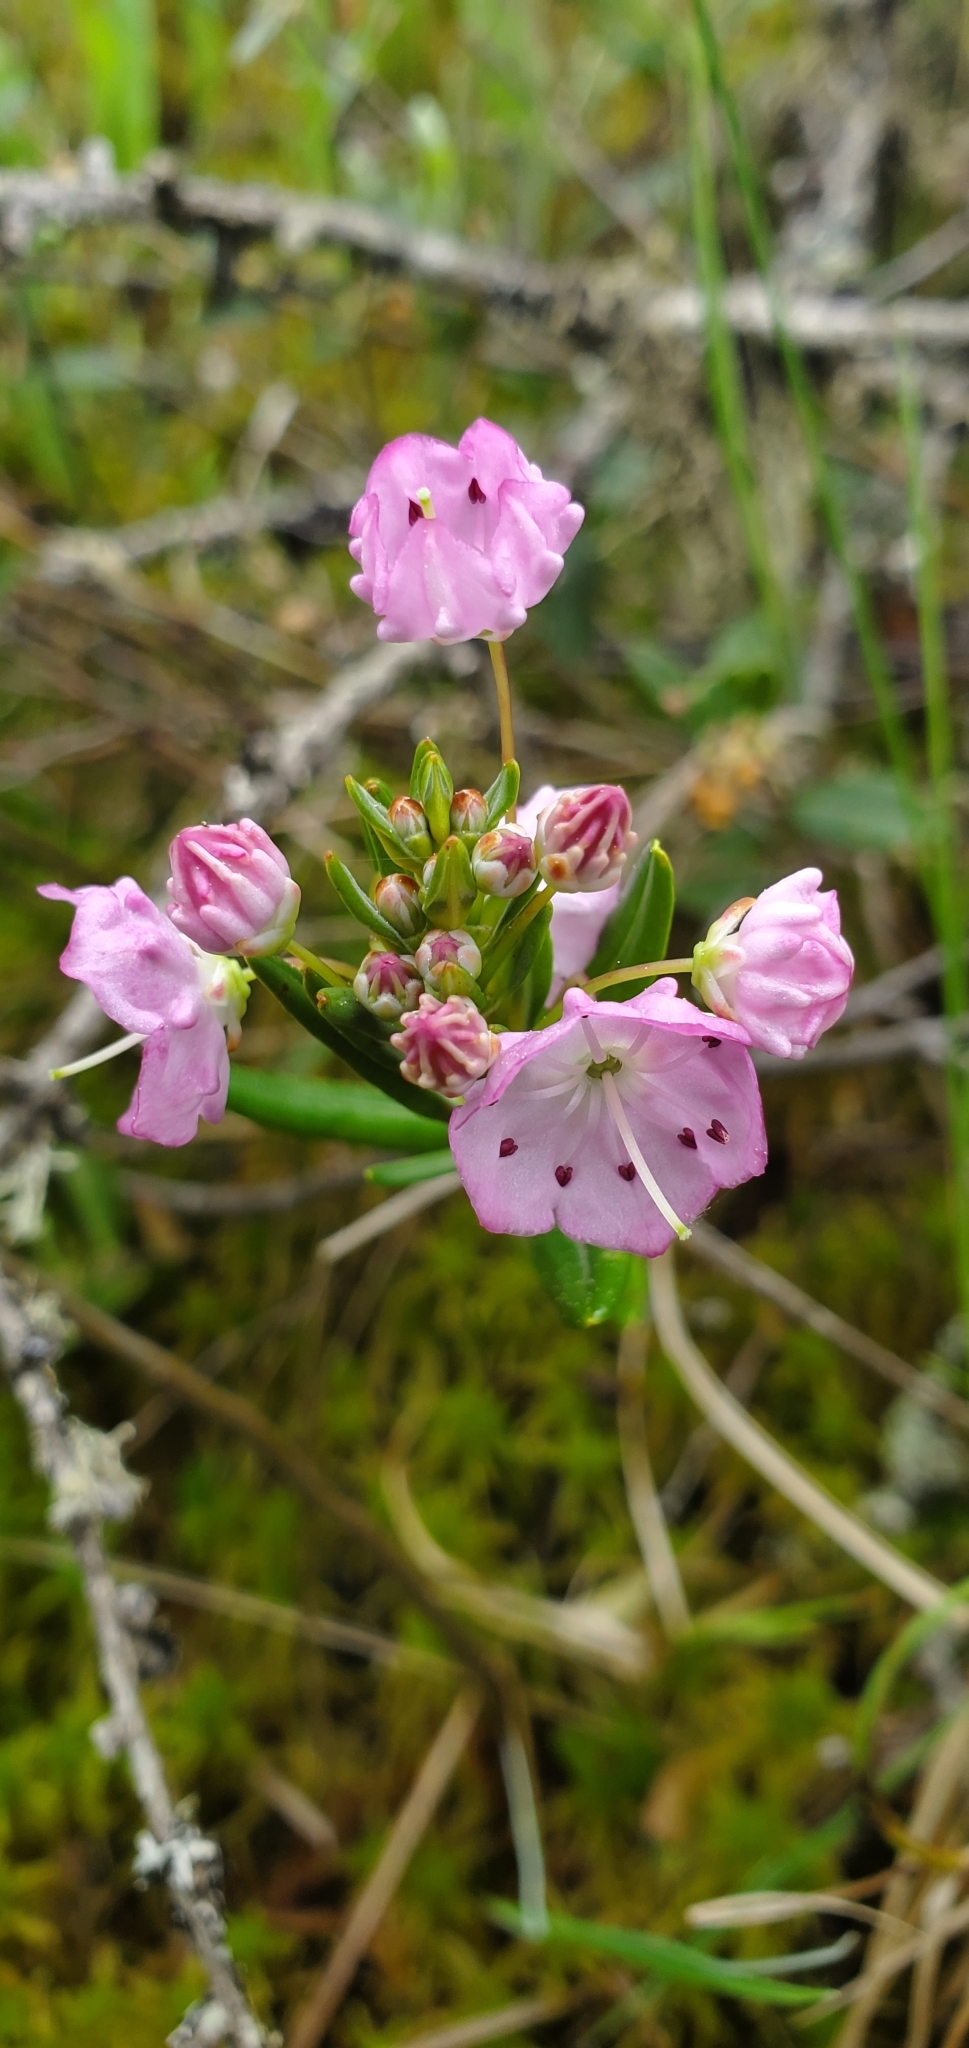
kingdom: Plantae
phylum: Tracheophyta
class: Magnoliopsida
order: Ericales
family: Ericaceae
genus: Kalmia
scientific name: Kalmia polifolia
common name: Bog-laurel
